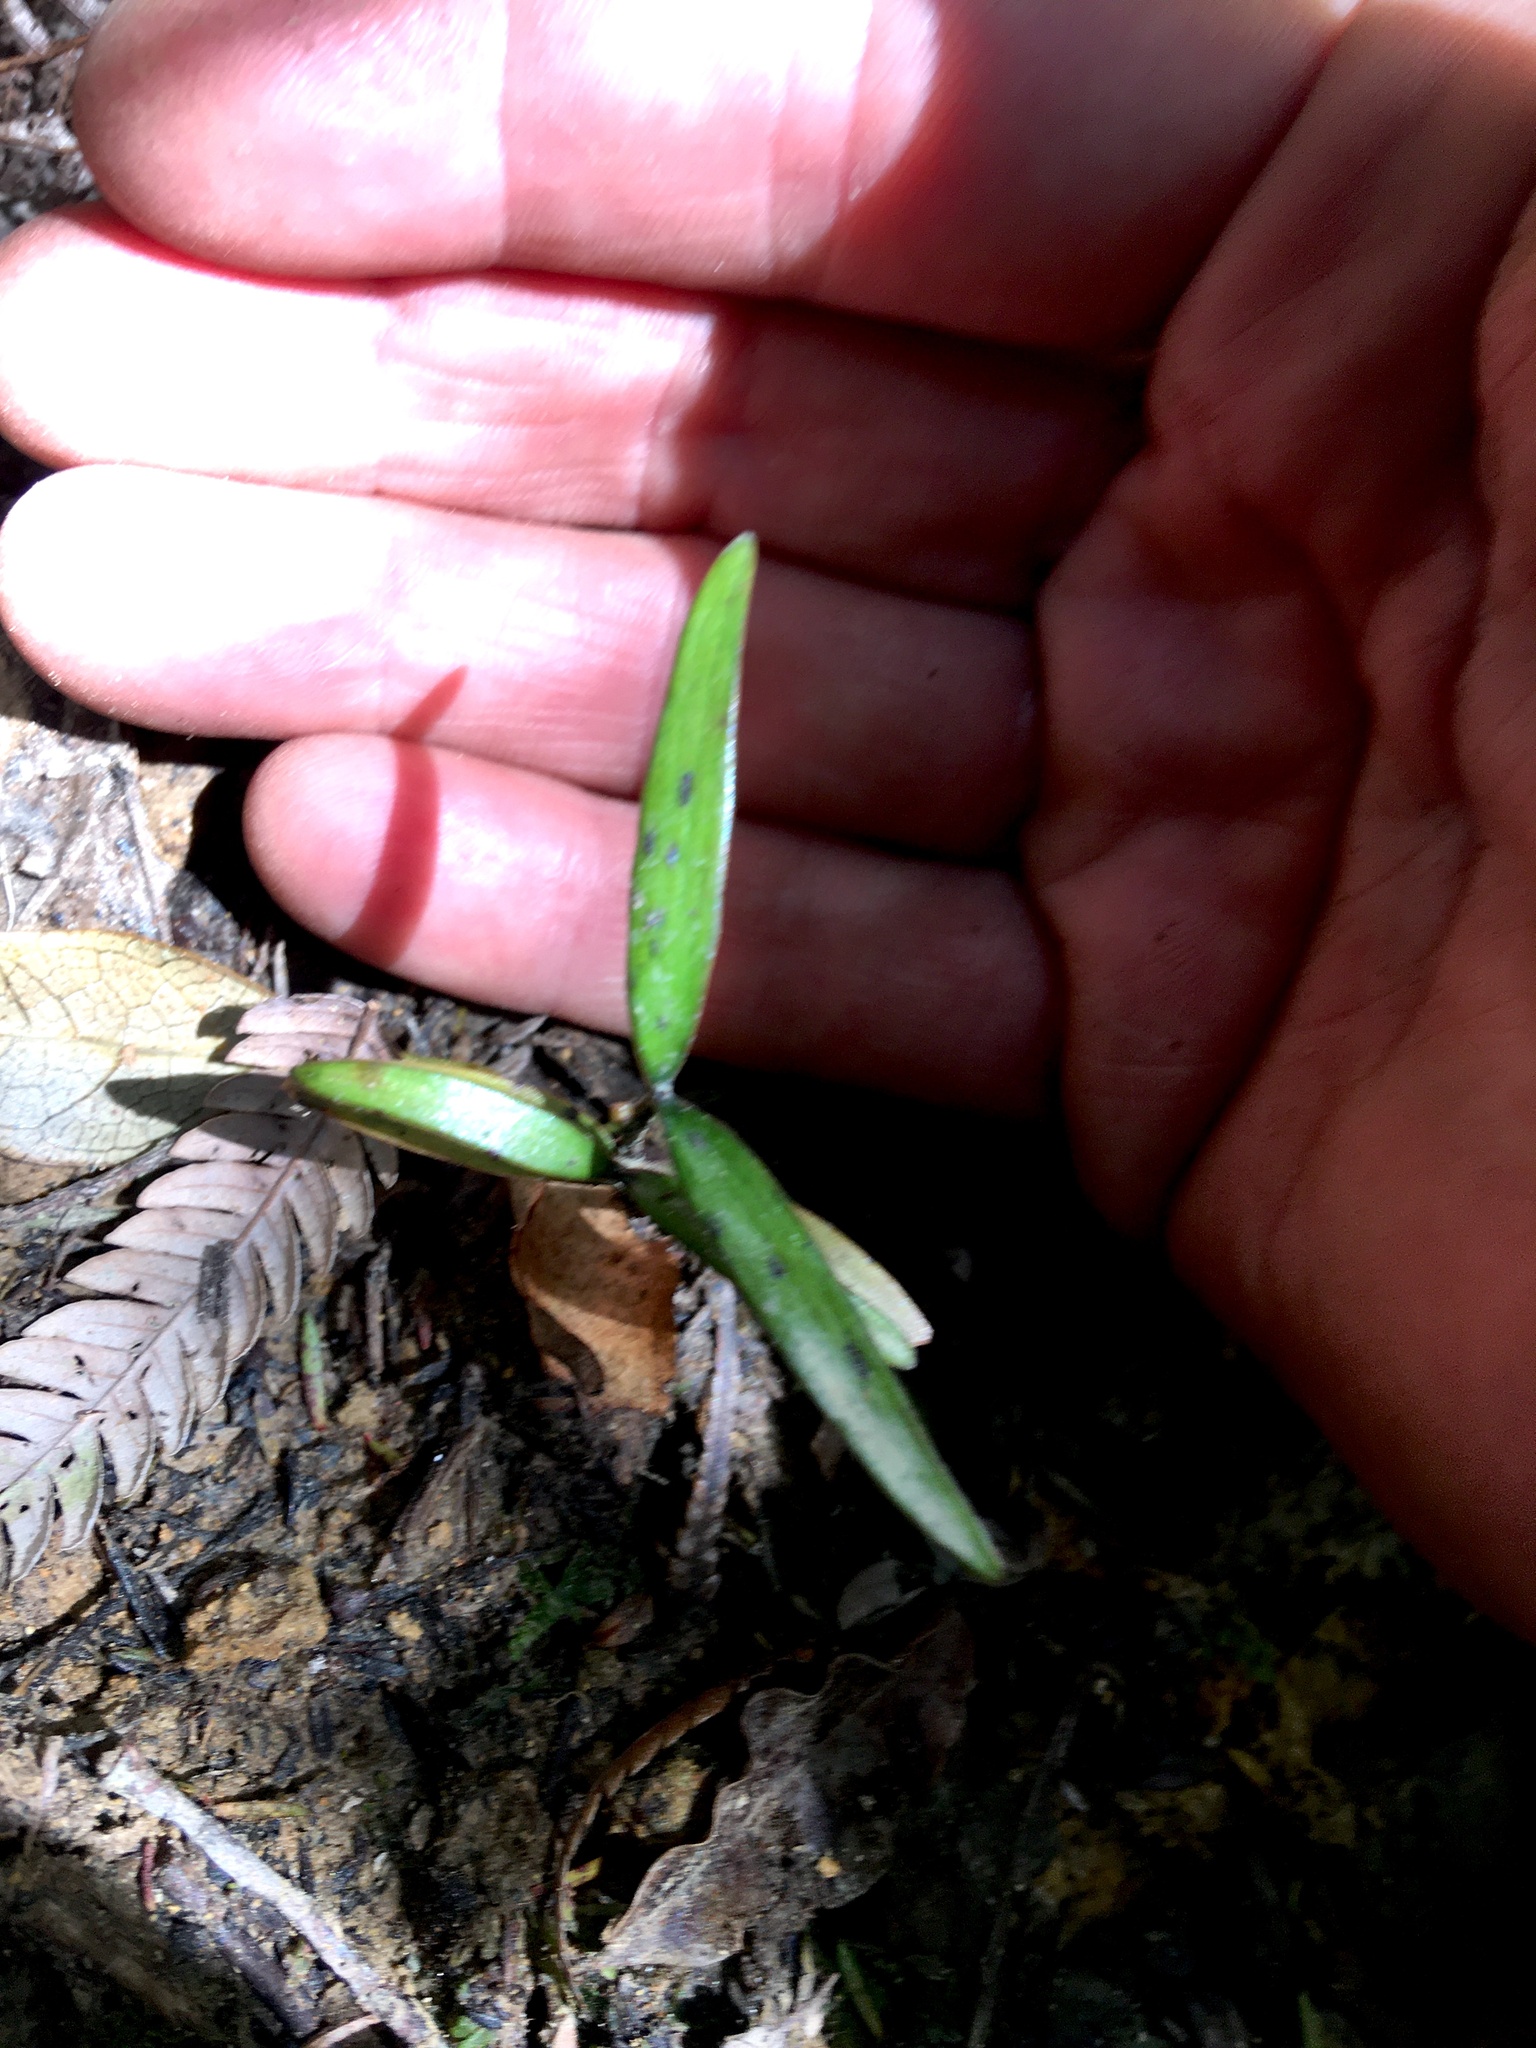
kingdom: Plantae
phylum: Tracheophyta
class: Pinopsida
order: Pinales
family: Araucariaceae
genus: Agathis
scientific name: Agathis australis
